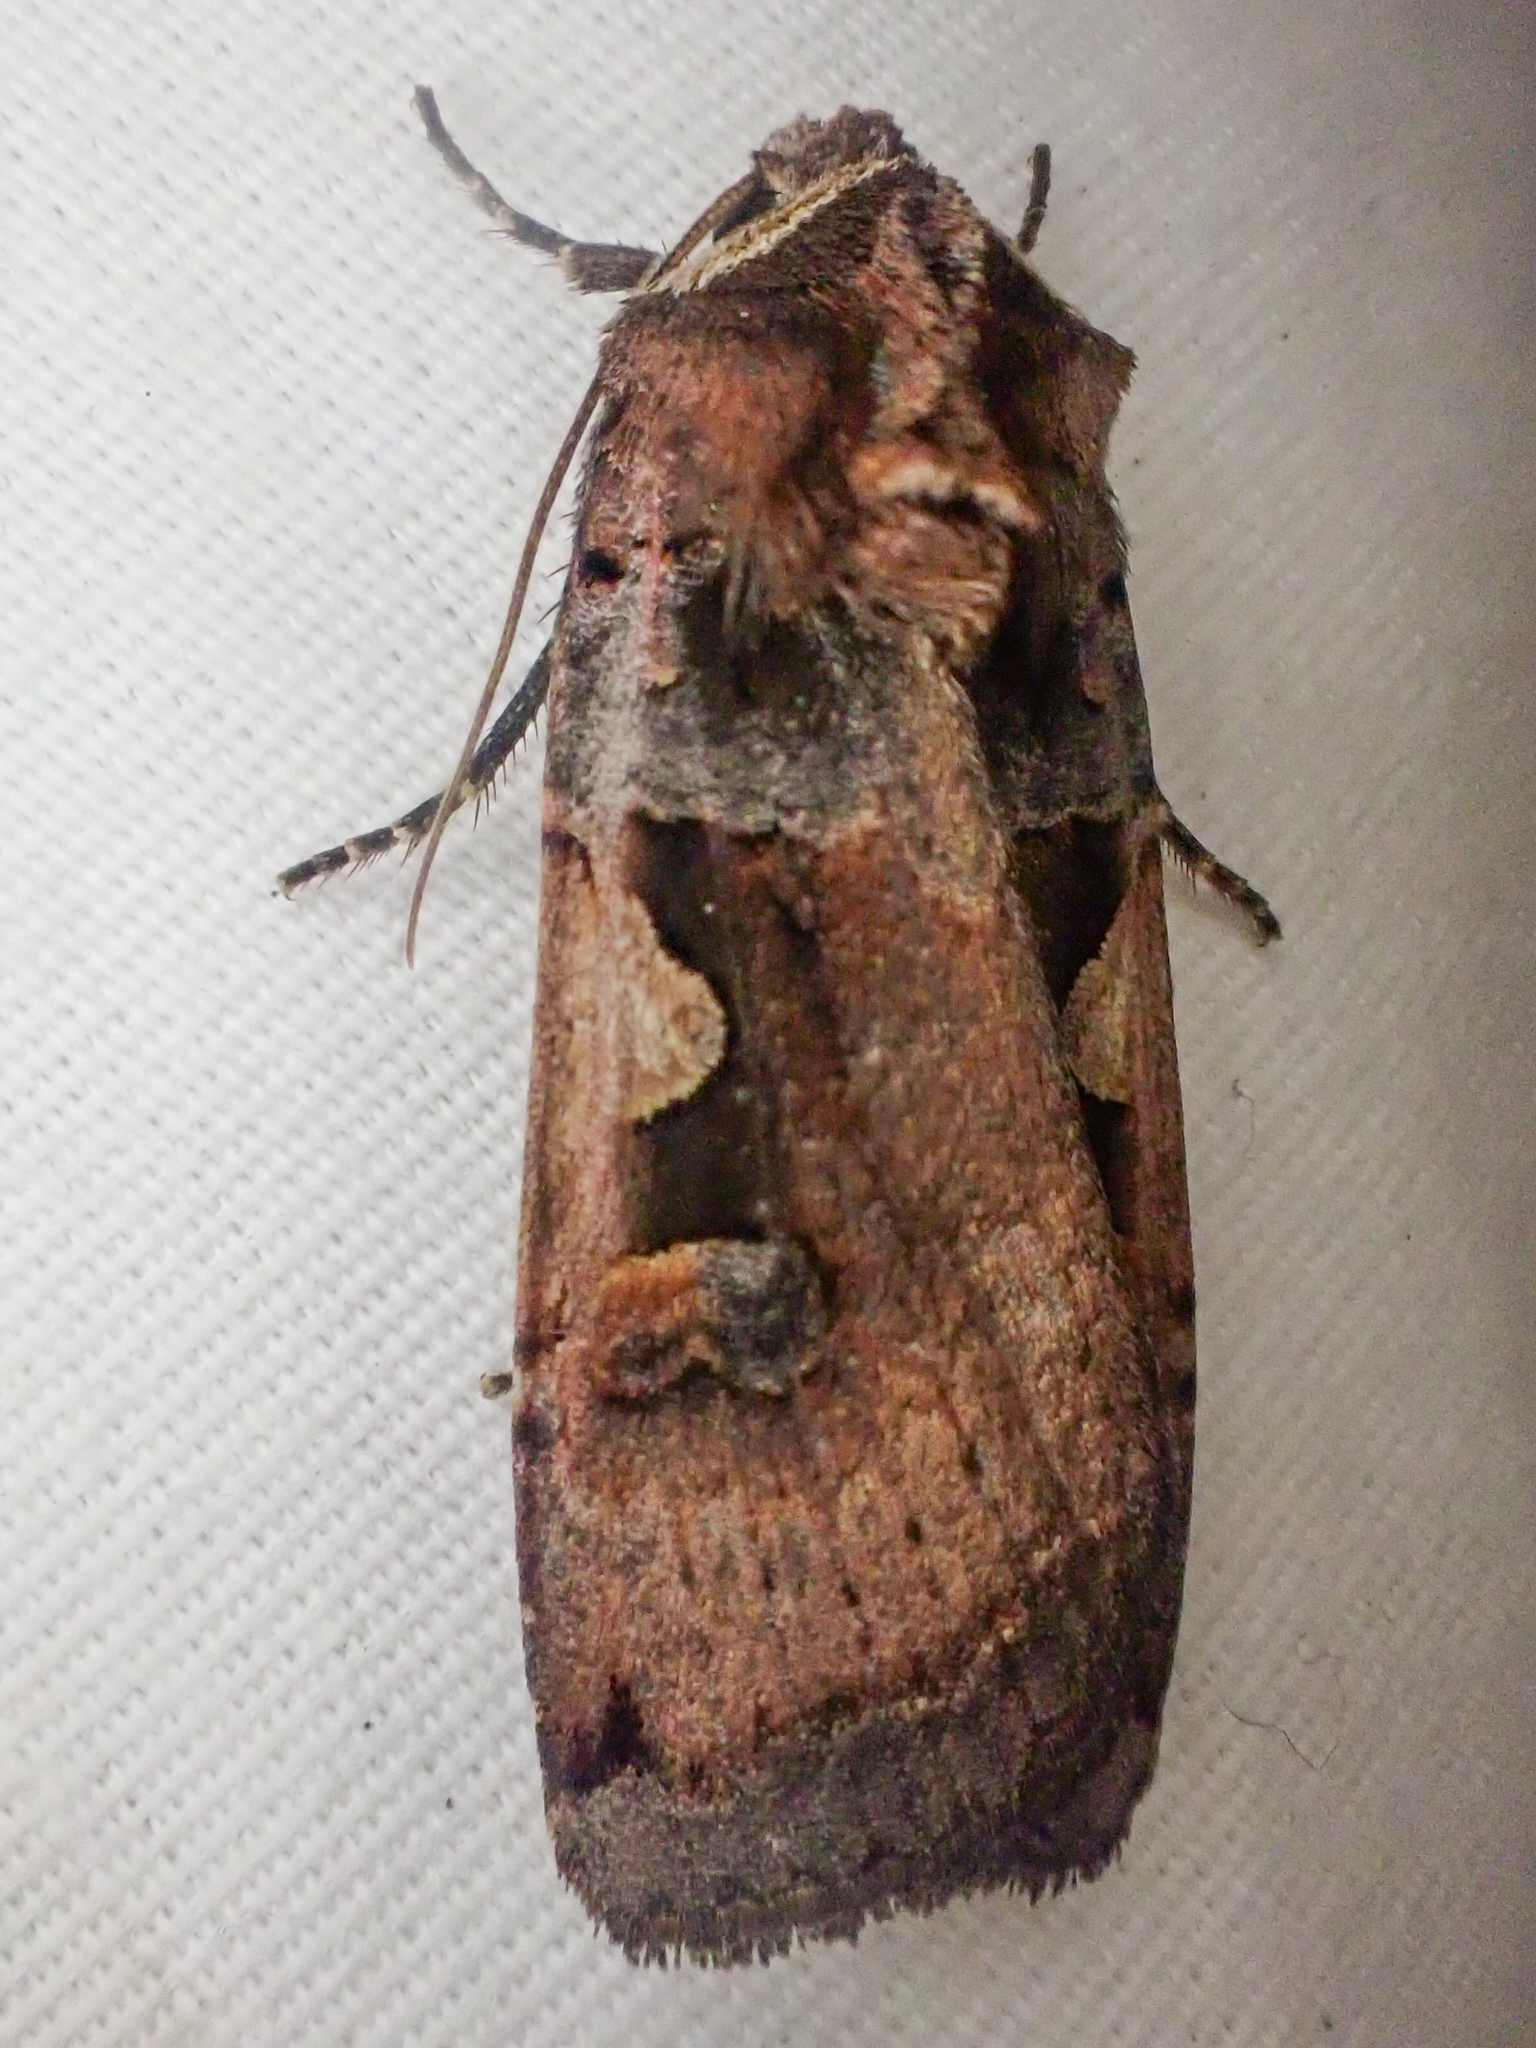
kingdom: Animalia
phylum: Arthropoda
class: Insecta
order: Lepidoptera
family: Noctuidae
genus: Xestia
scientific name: Xestia c-nigrum
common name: Setaceous hebrew character
